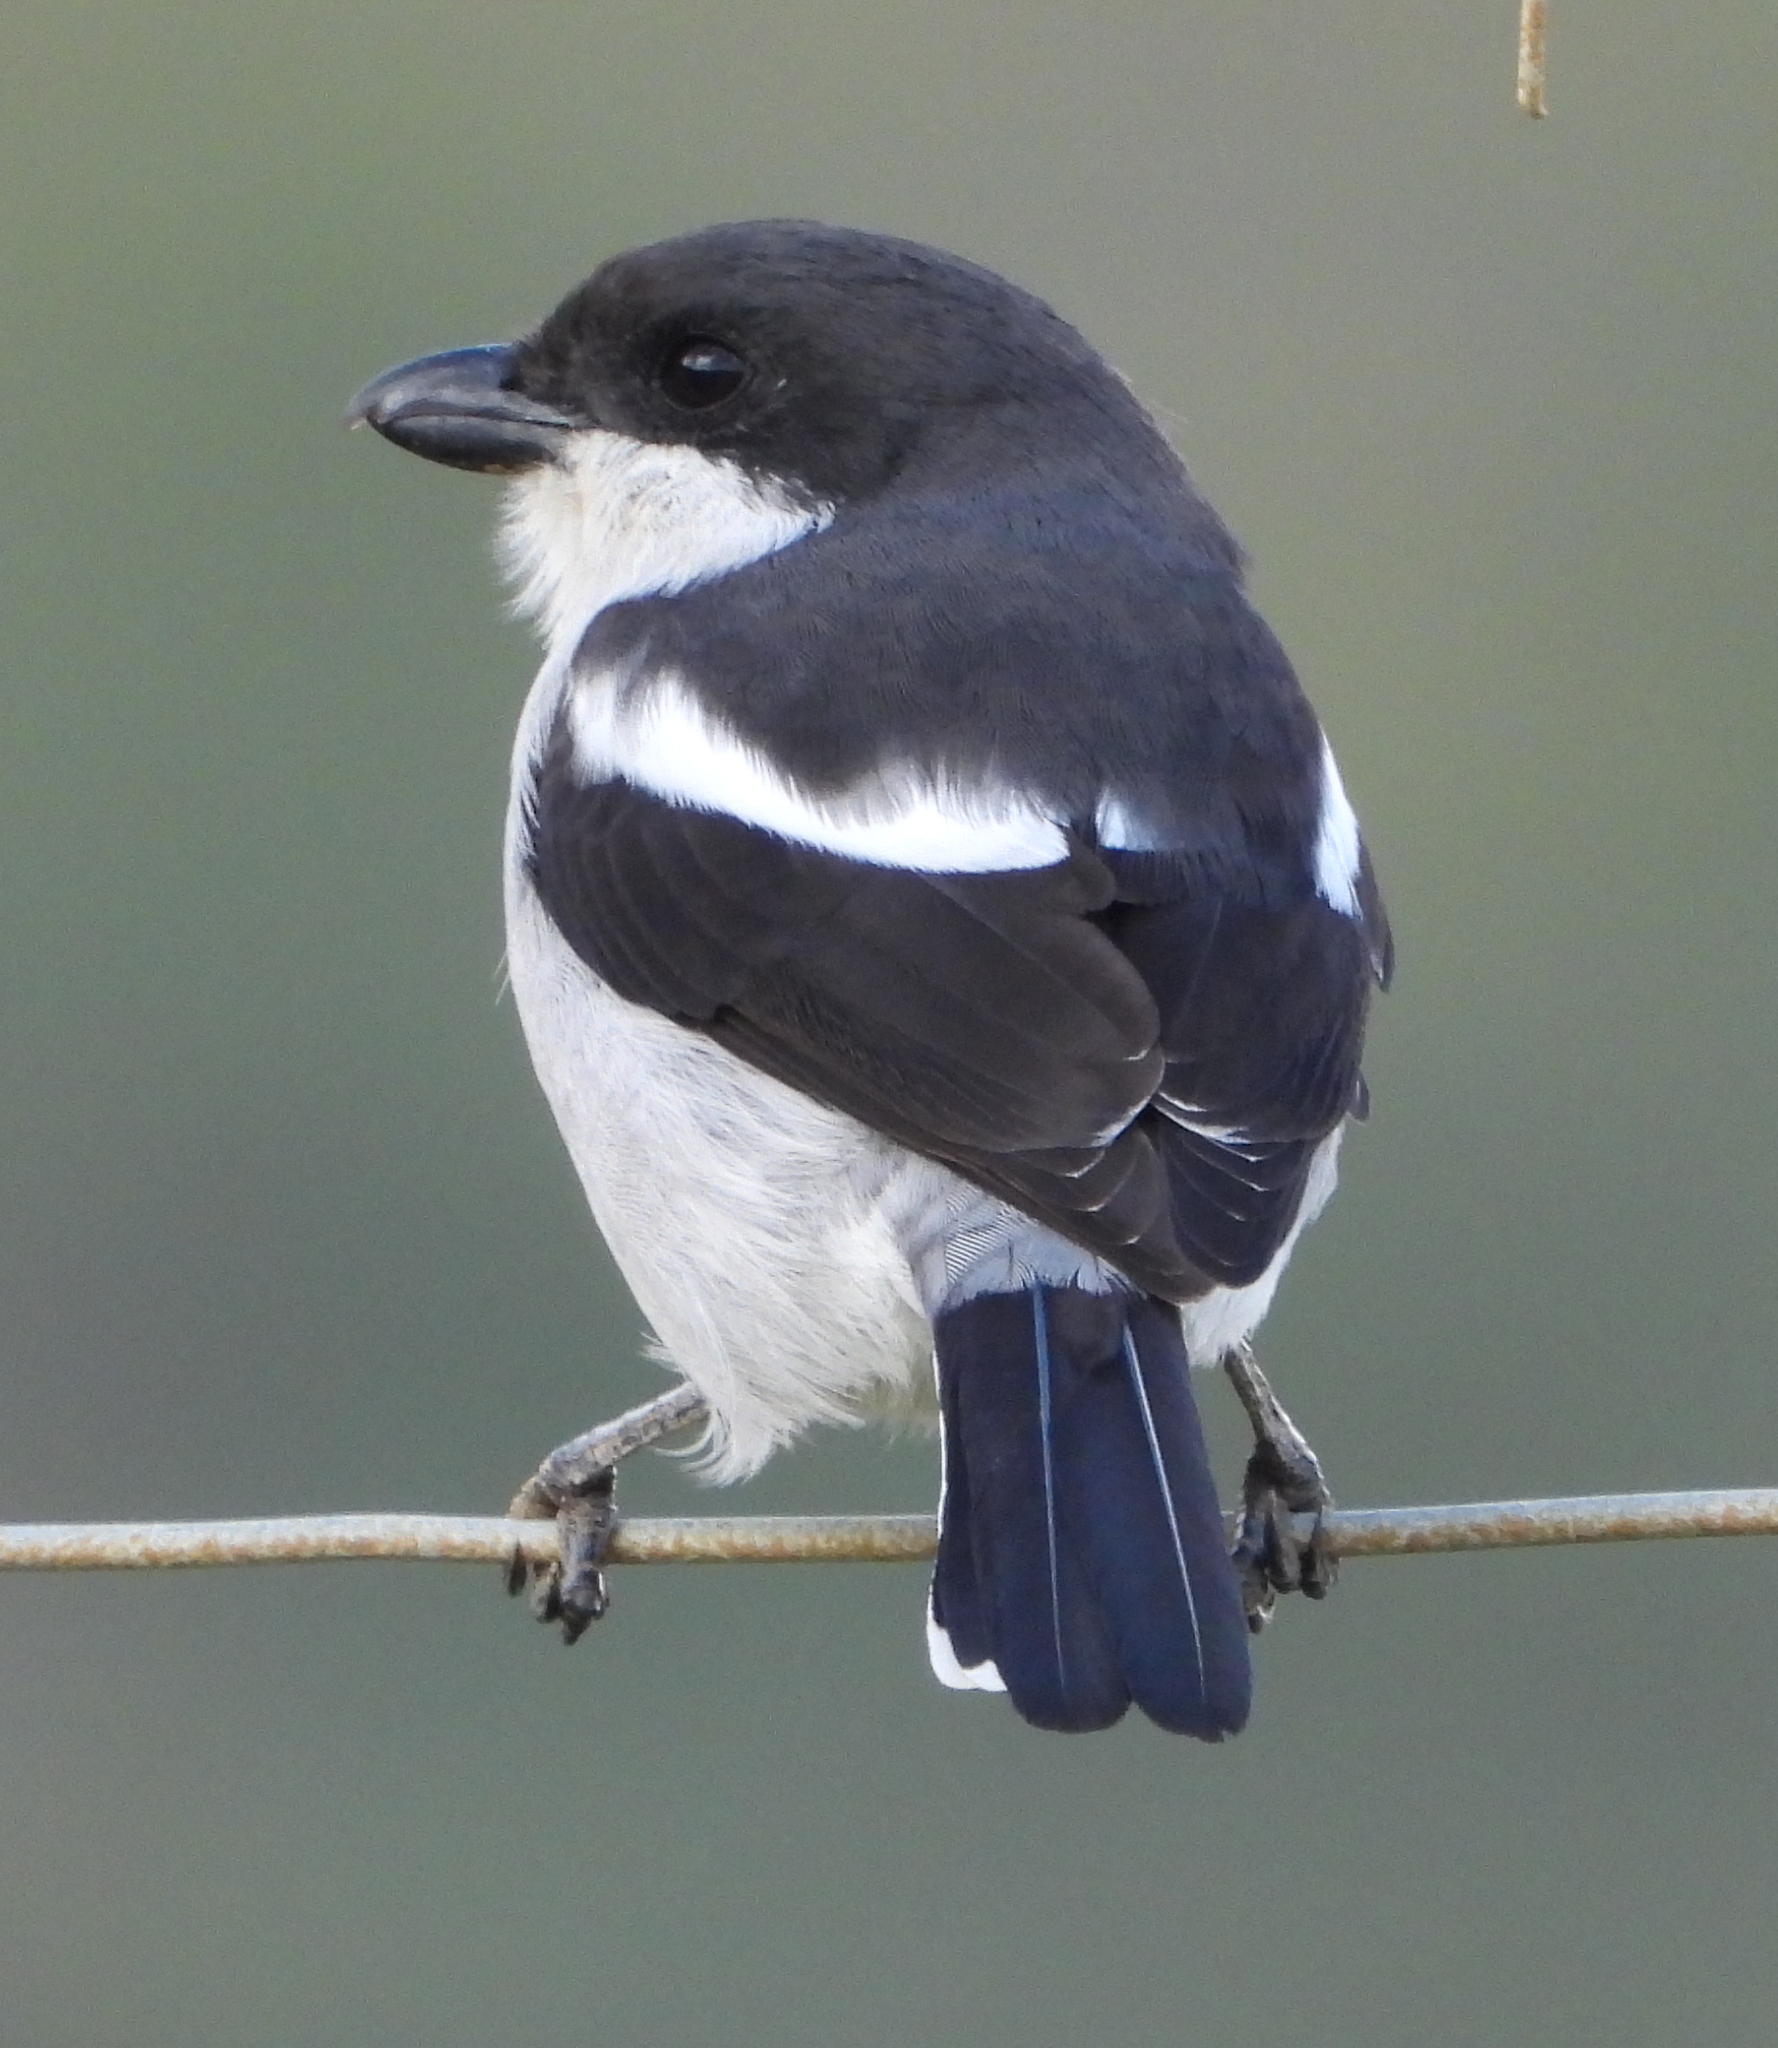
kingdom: Animalia
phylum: Chordata
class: Aves
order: Passeriformes
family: Laniidae
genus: Lanius
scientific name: Lanius collaris
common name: Southern fiscal
